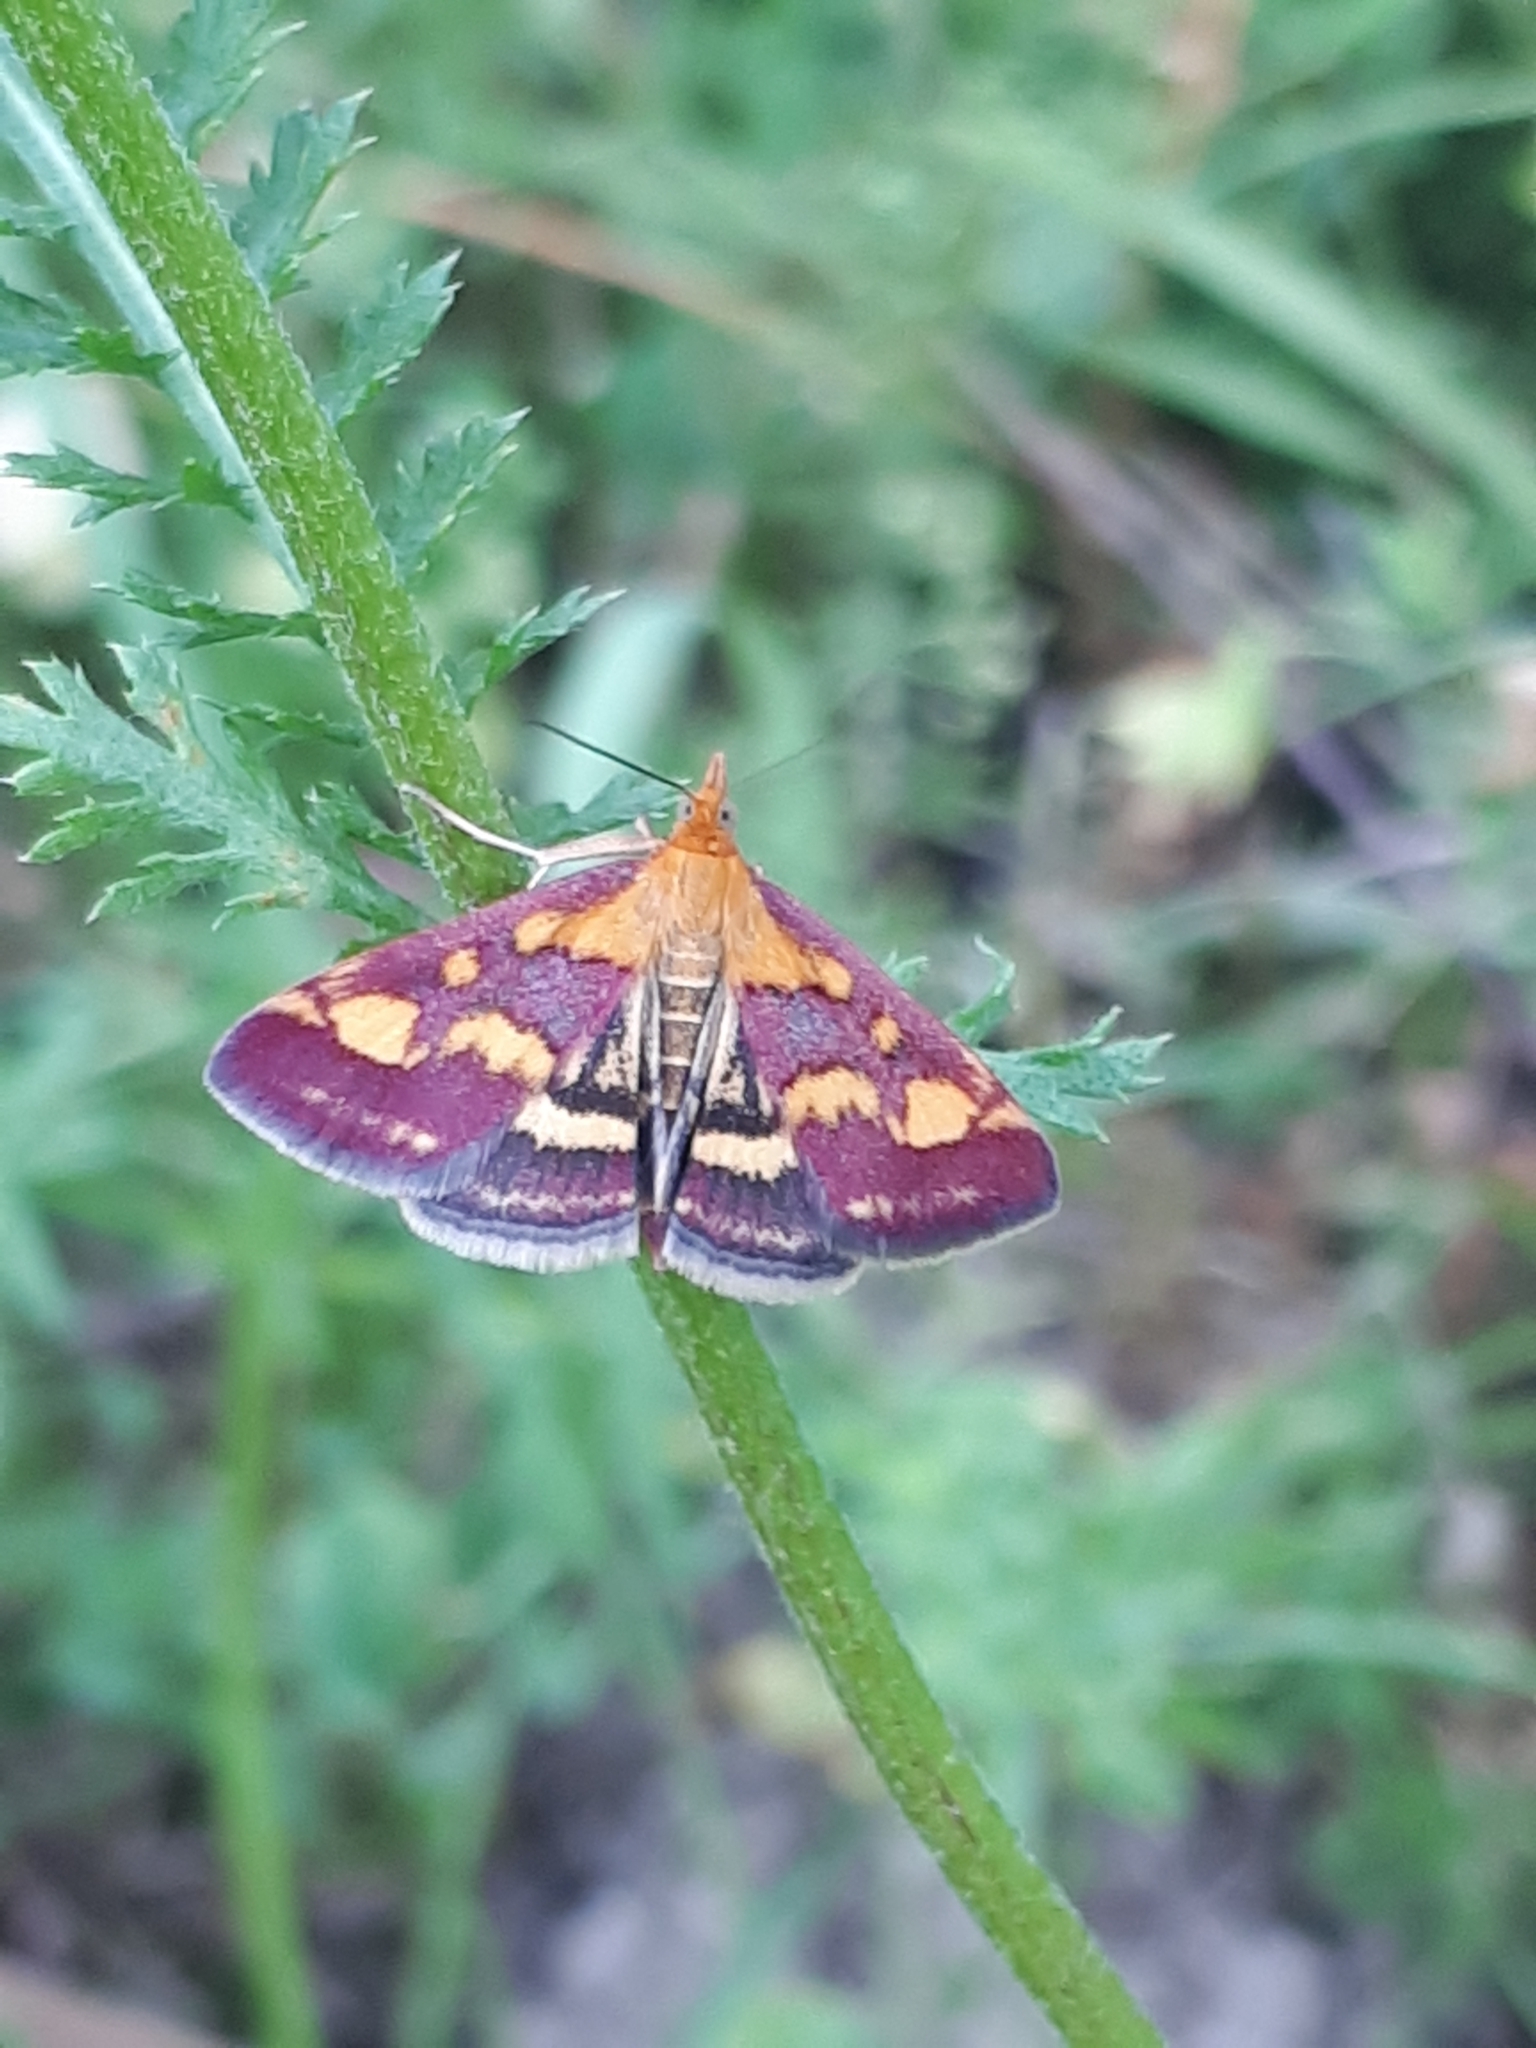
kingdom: Animalia
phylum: Arthropoda
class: Insecta
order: Lepidoptera
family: Crambidae
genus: Pyrausta
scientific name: Pyrausta purpuralis
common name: Common purple & gold
